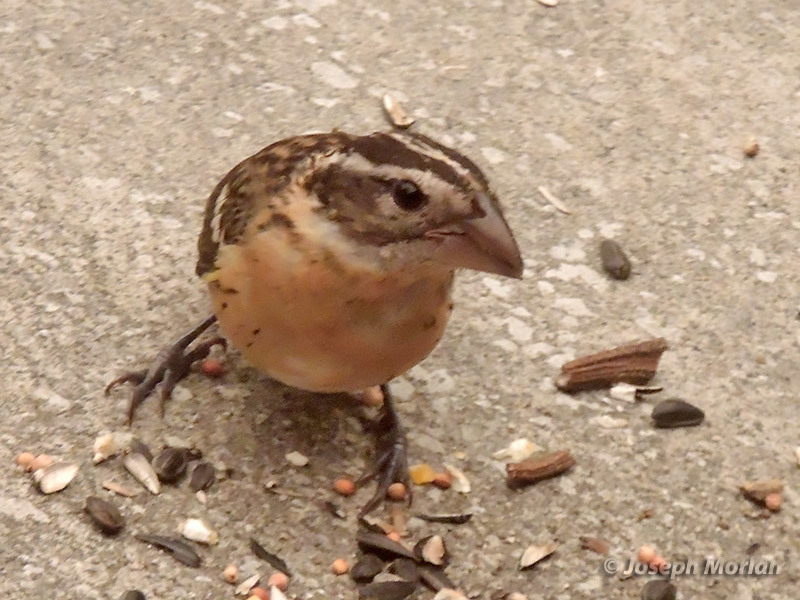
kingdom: Animalia
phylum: Chordata
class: Aves
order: Passeriformes
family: Cardinalidae
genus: Pheucticus
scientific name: Pheucticus melanocephalus
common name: Black-headed grosbeak
